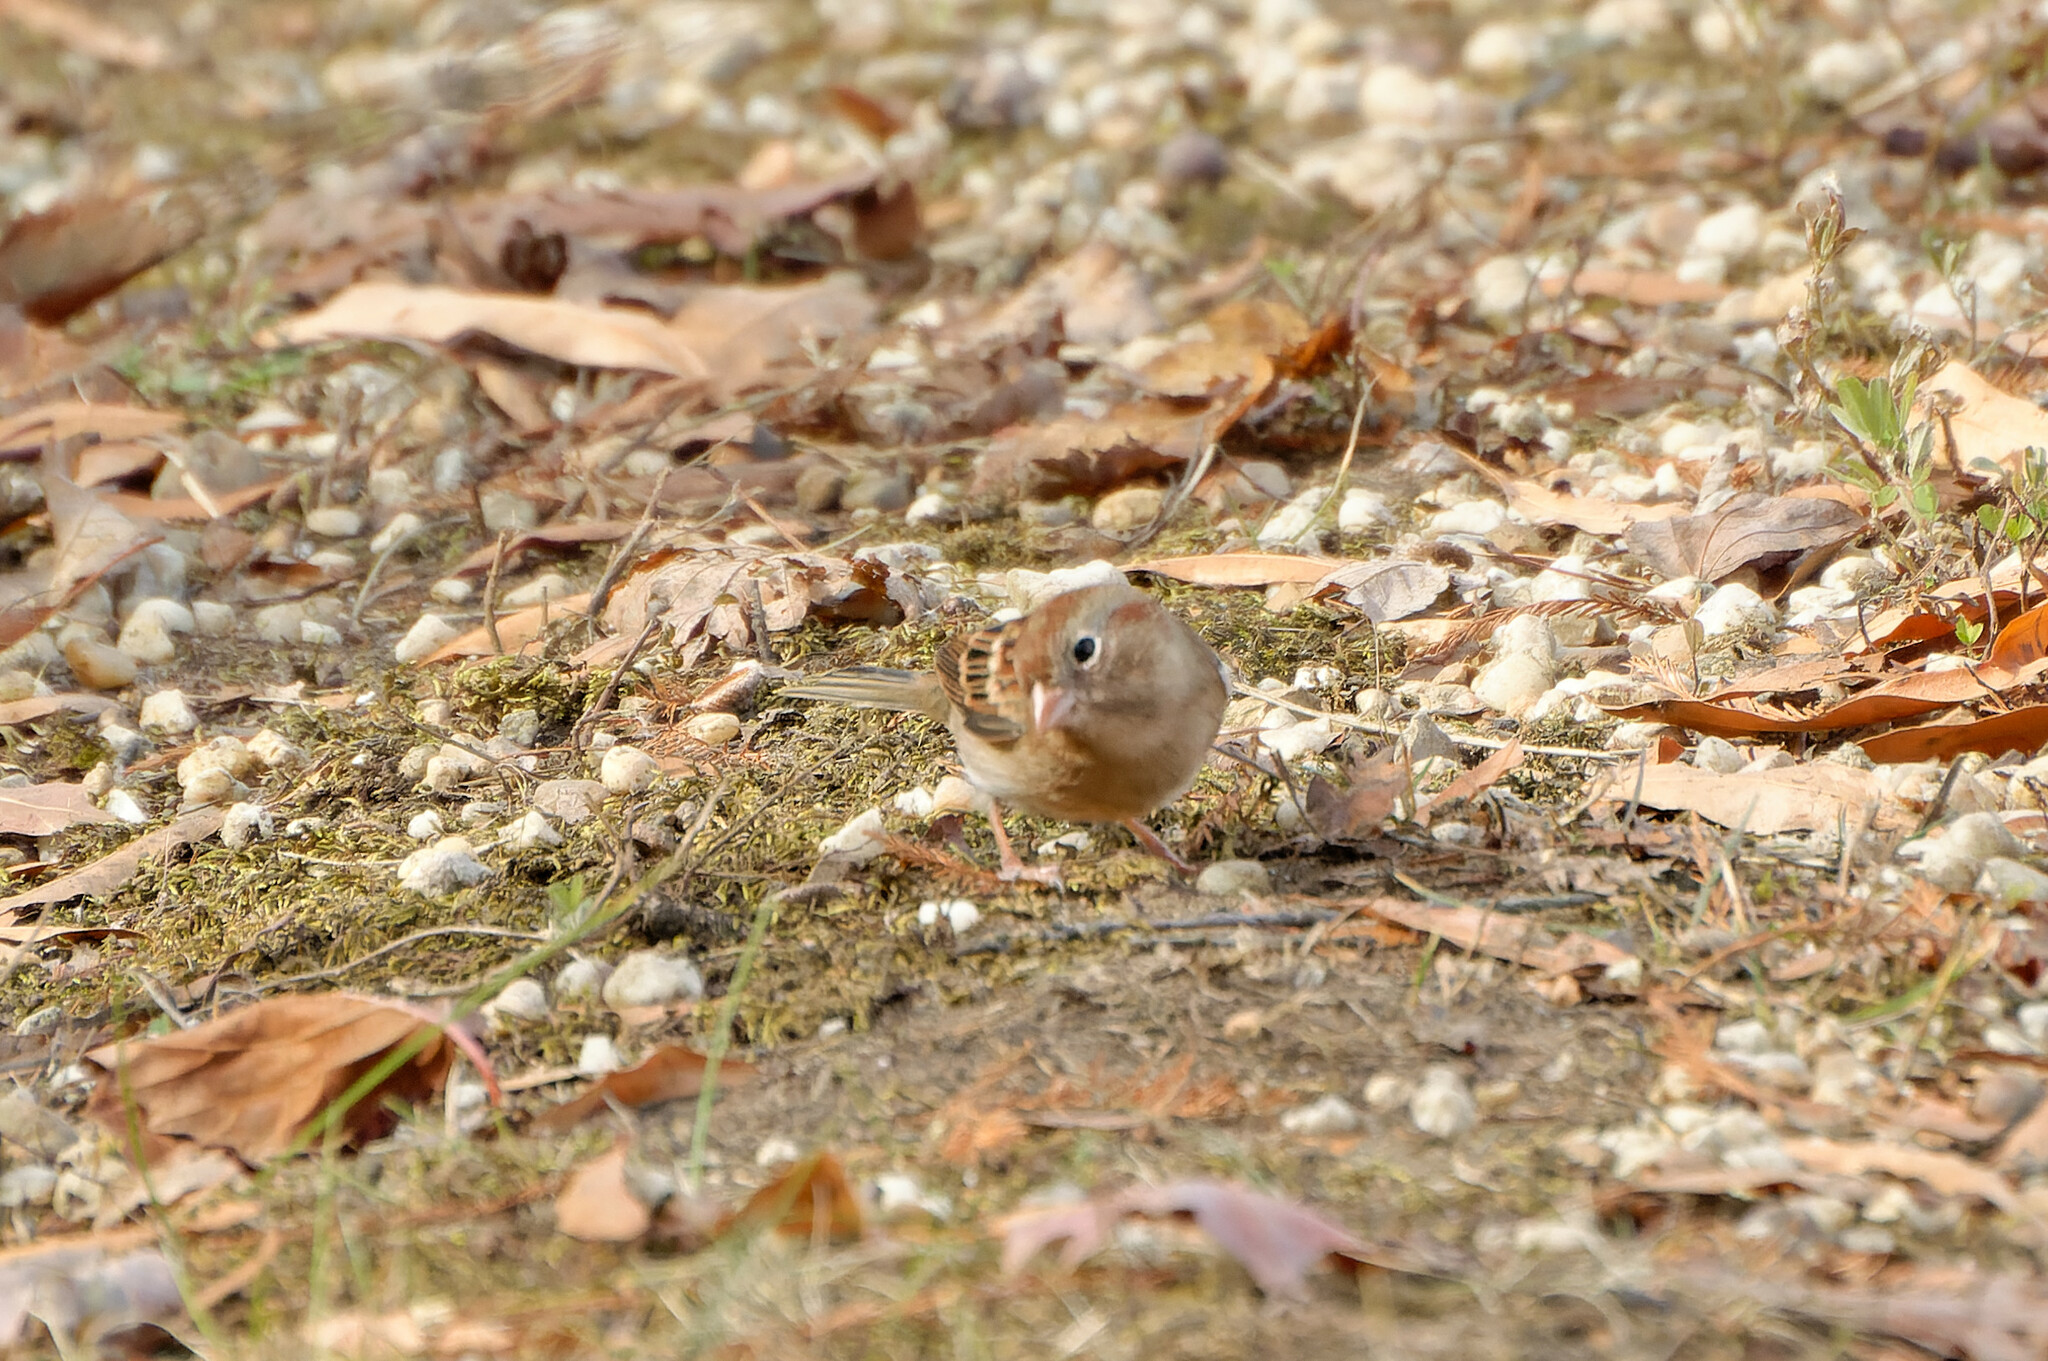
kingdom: Animalia
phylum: Chordata
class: Aves
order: Passeriformes
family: Passerellidae
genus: Spizella
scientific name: Spizella pusilla
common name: Field sparrow
